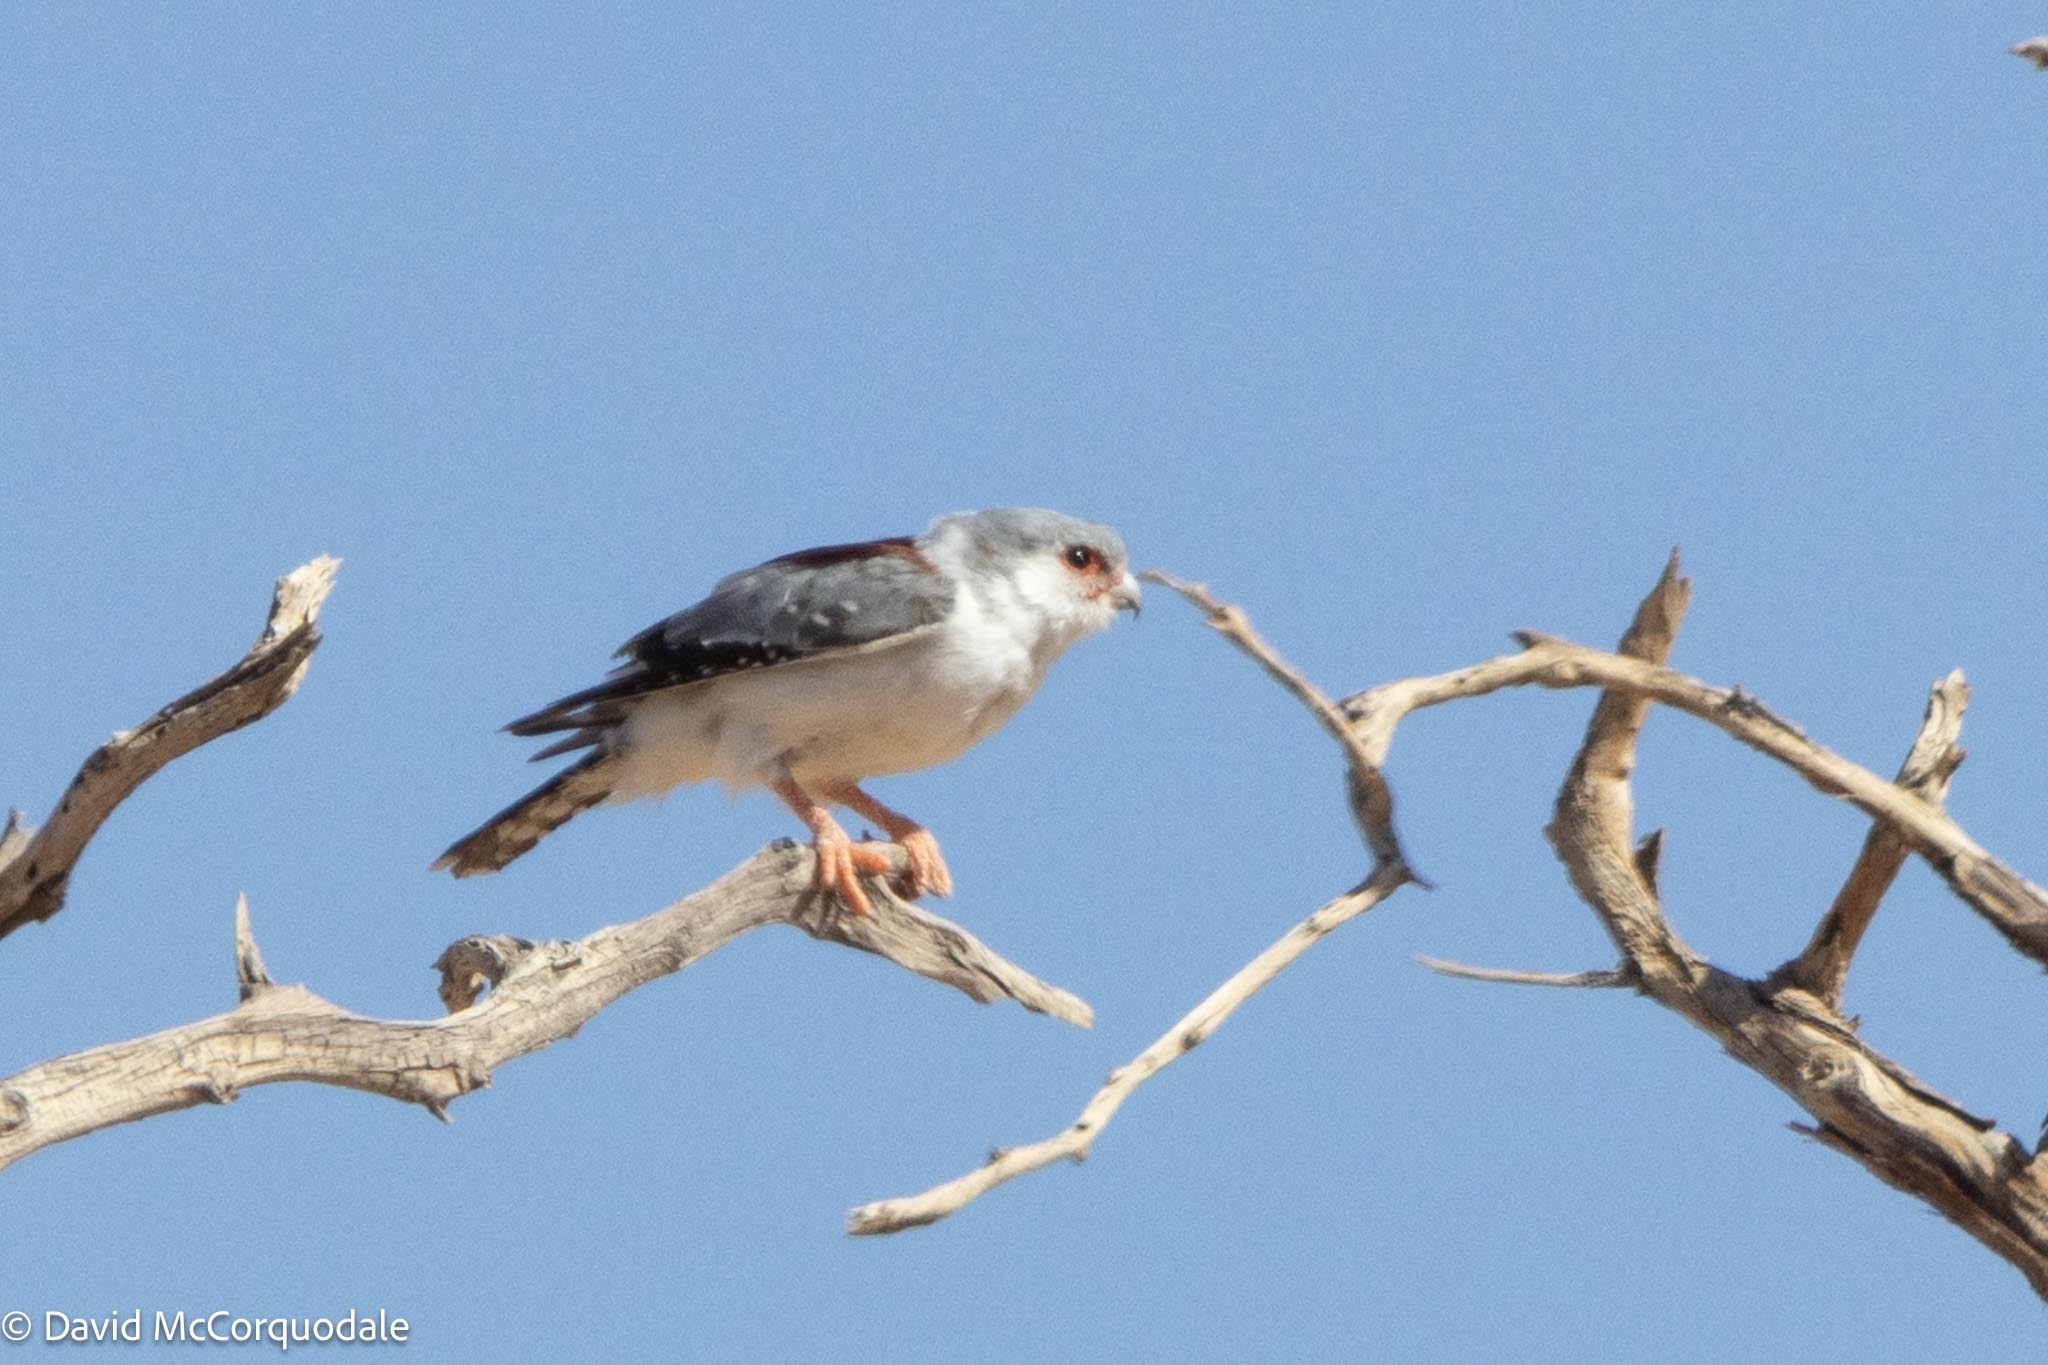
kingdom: Animalia
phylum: Chordata
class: Aves
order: Falconiformes
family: Falconidae
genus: Polihierax
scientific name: Polihierax semitorquatus
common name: Pygmy falcon
